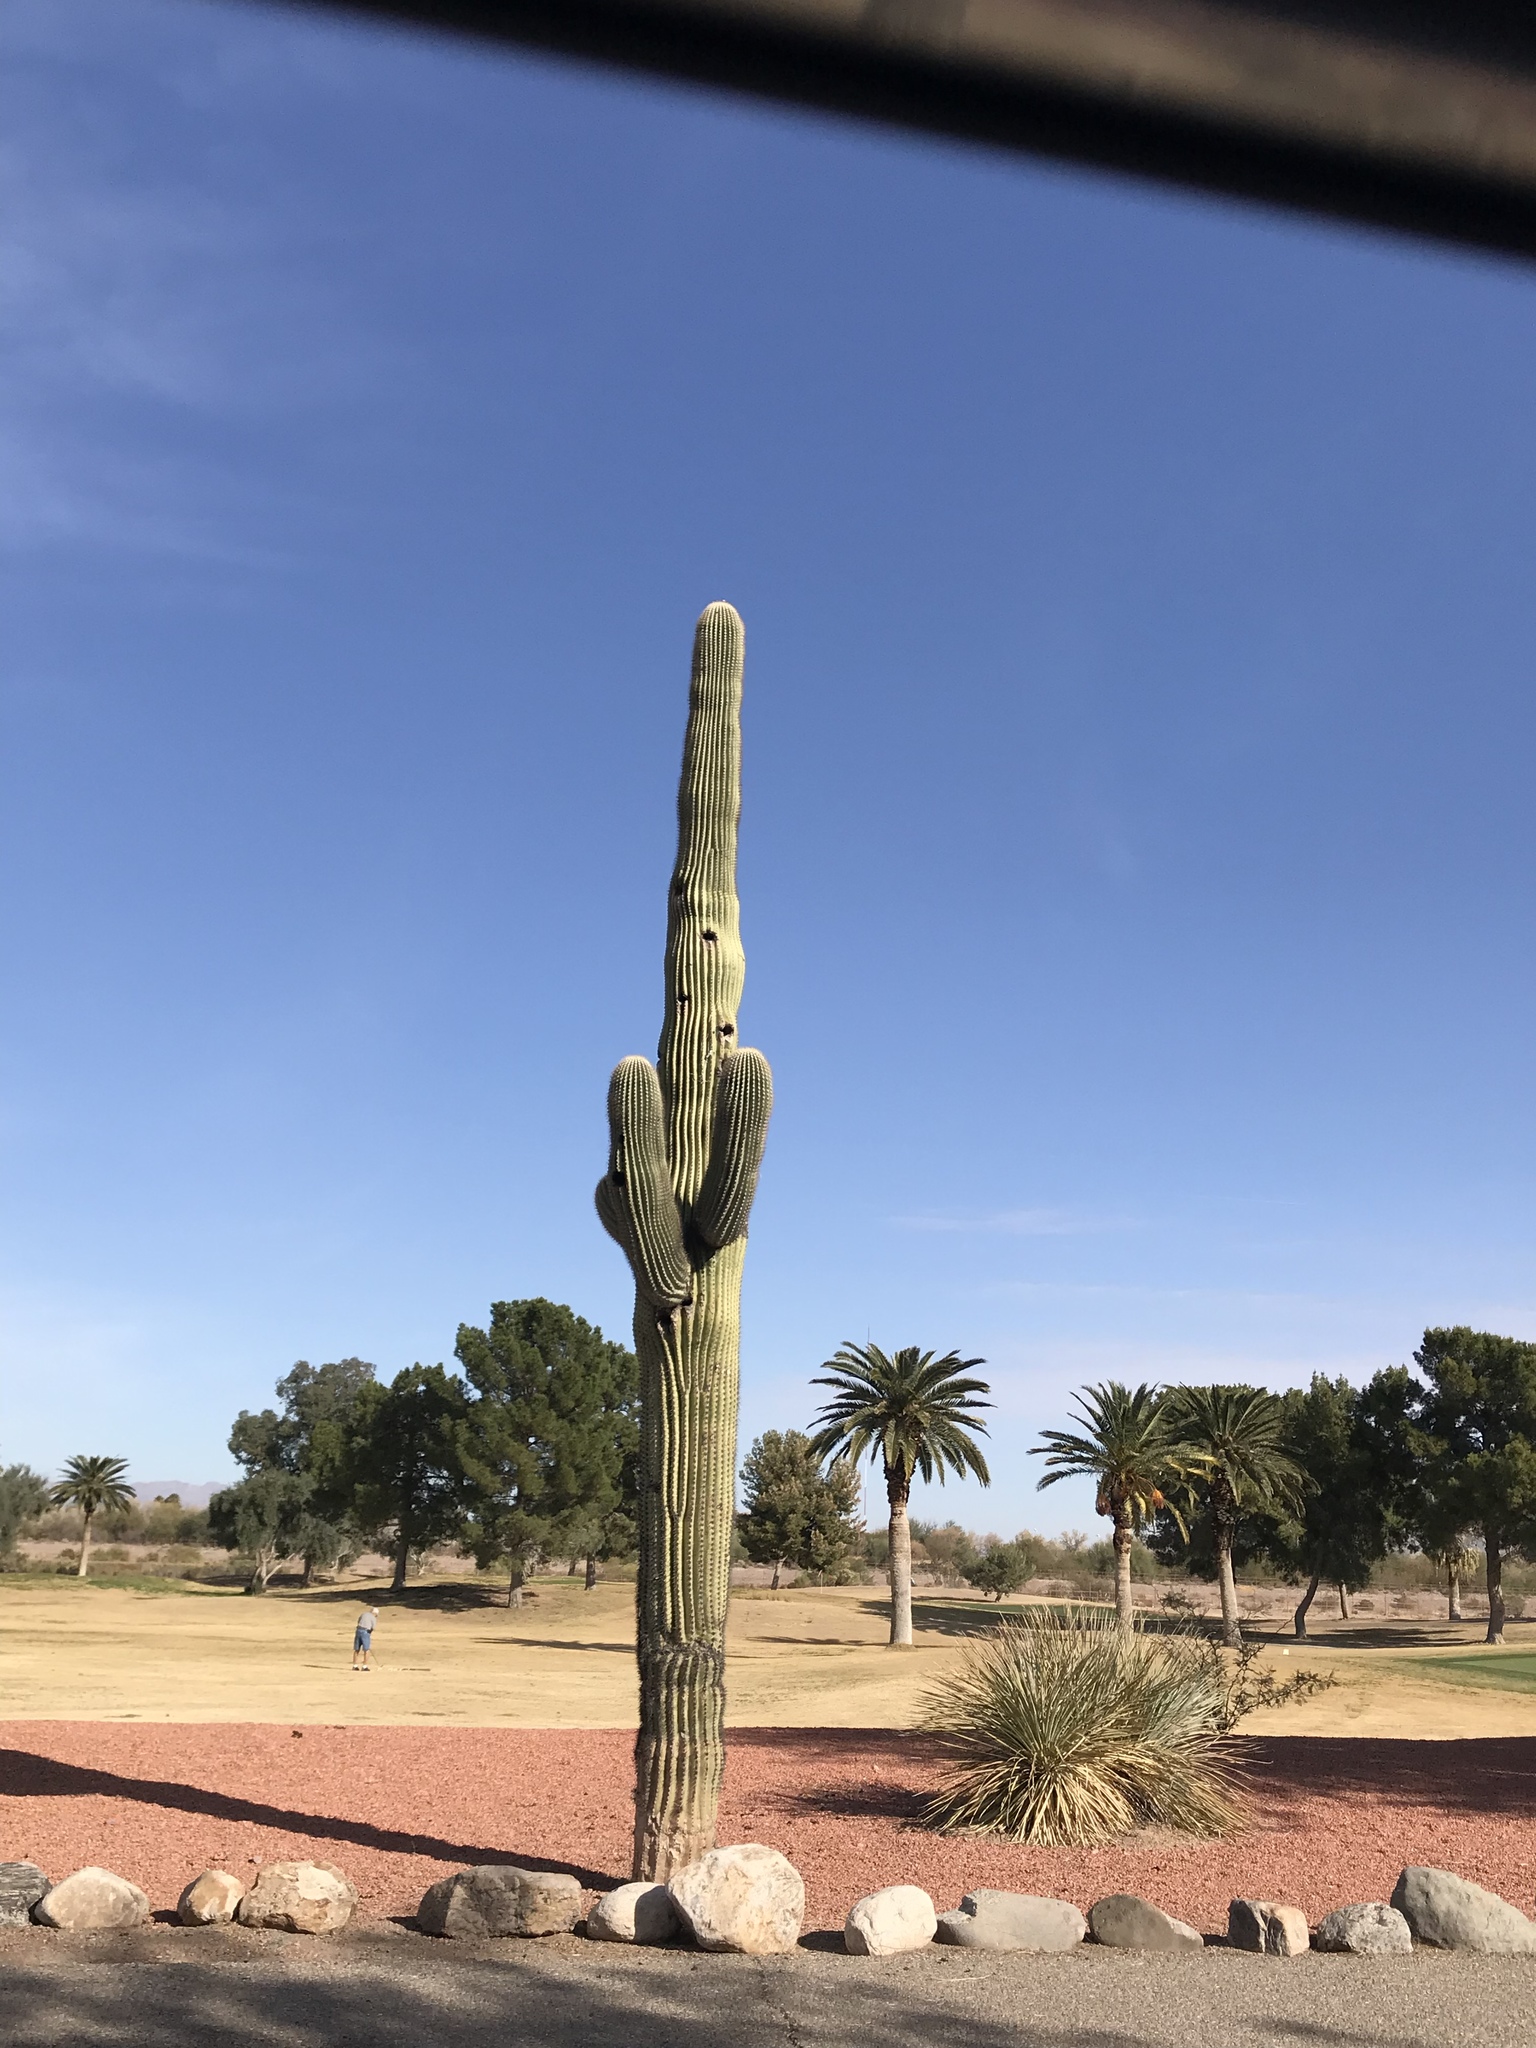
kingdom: Plantae
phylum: Tracheophyta
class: Magnoliopsida
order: Caryophyllales
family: Cactaceae
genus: Carnegiea
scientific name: Carnegiea gigantea
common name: Saguaro
